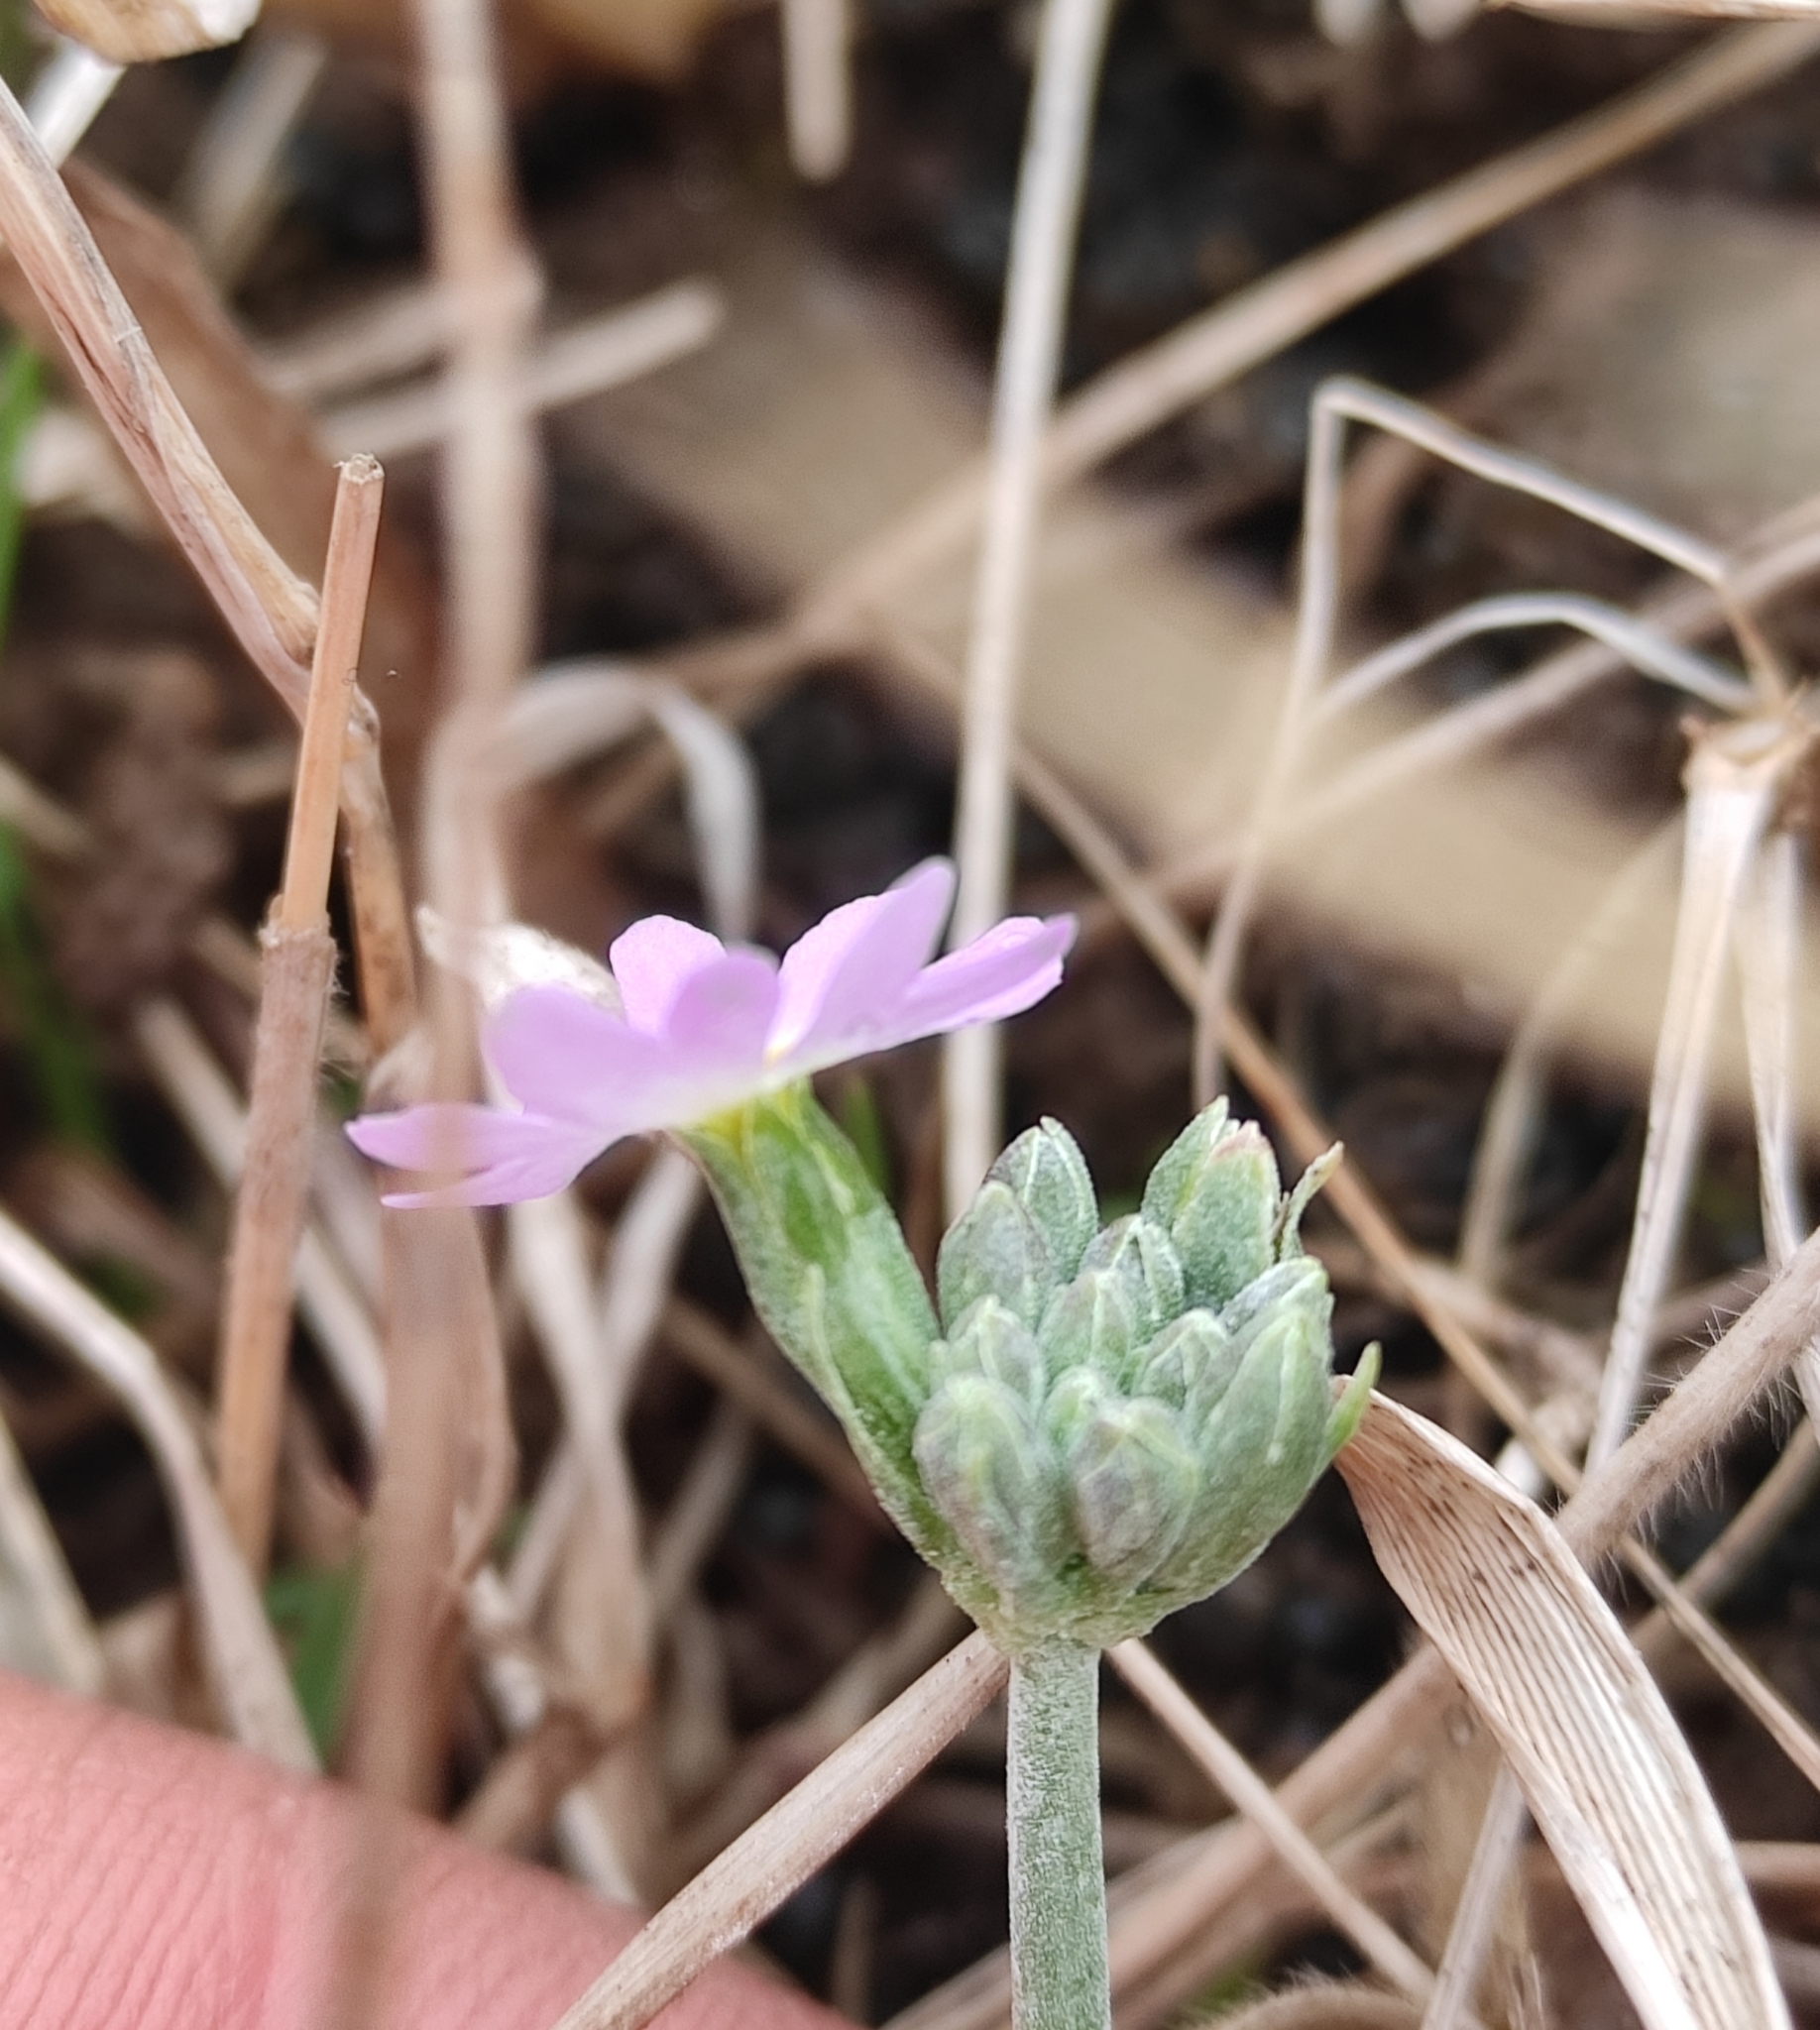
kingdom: Plantae
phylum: Tracheophyta
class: Magnoliopsida
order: Ericales
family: Primulaceae
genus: Primula
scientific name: Primula farinosa
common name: Bird's-eye primrose
